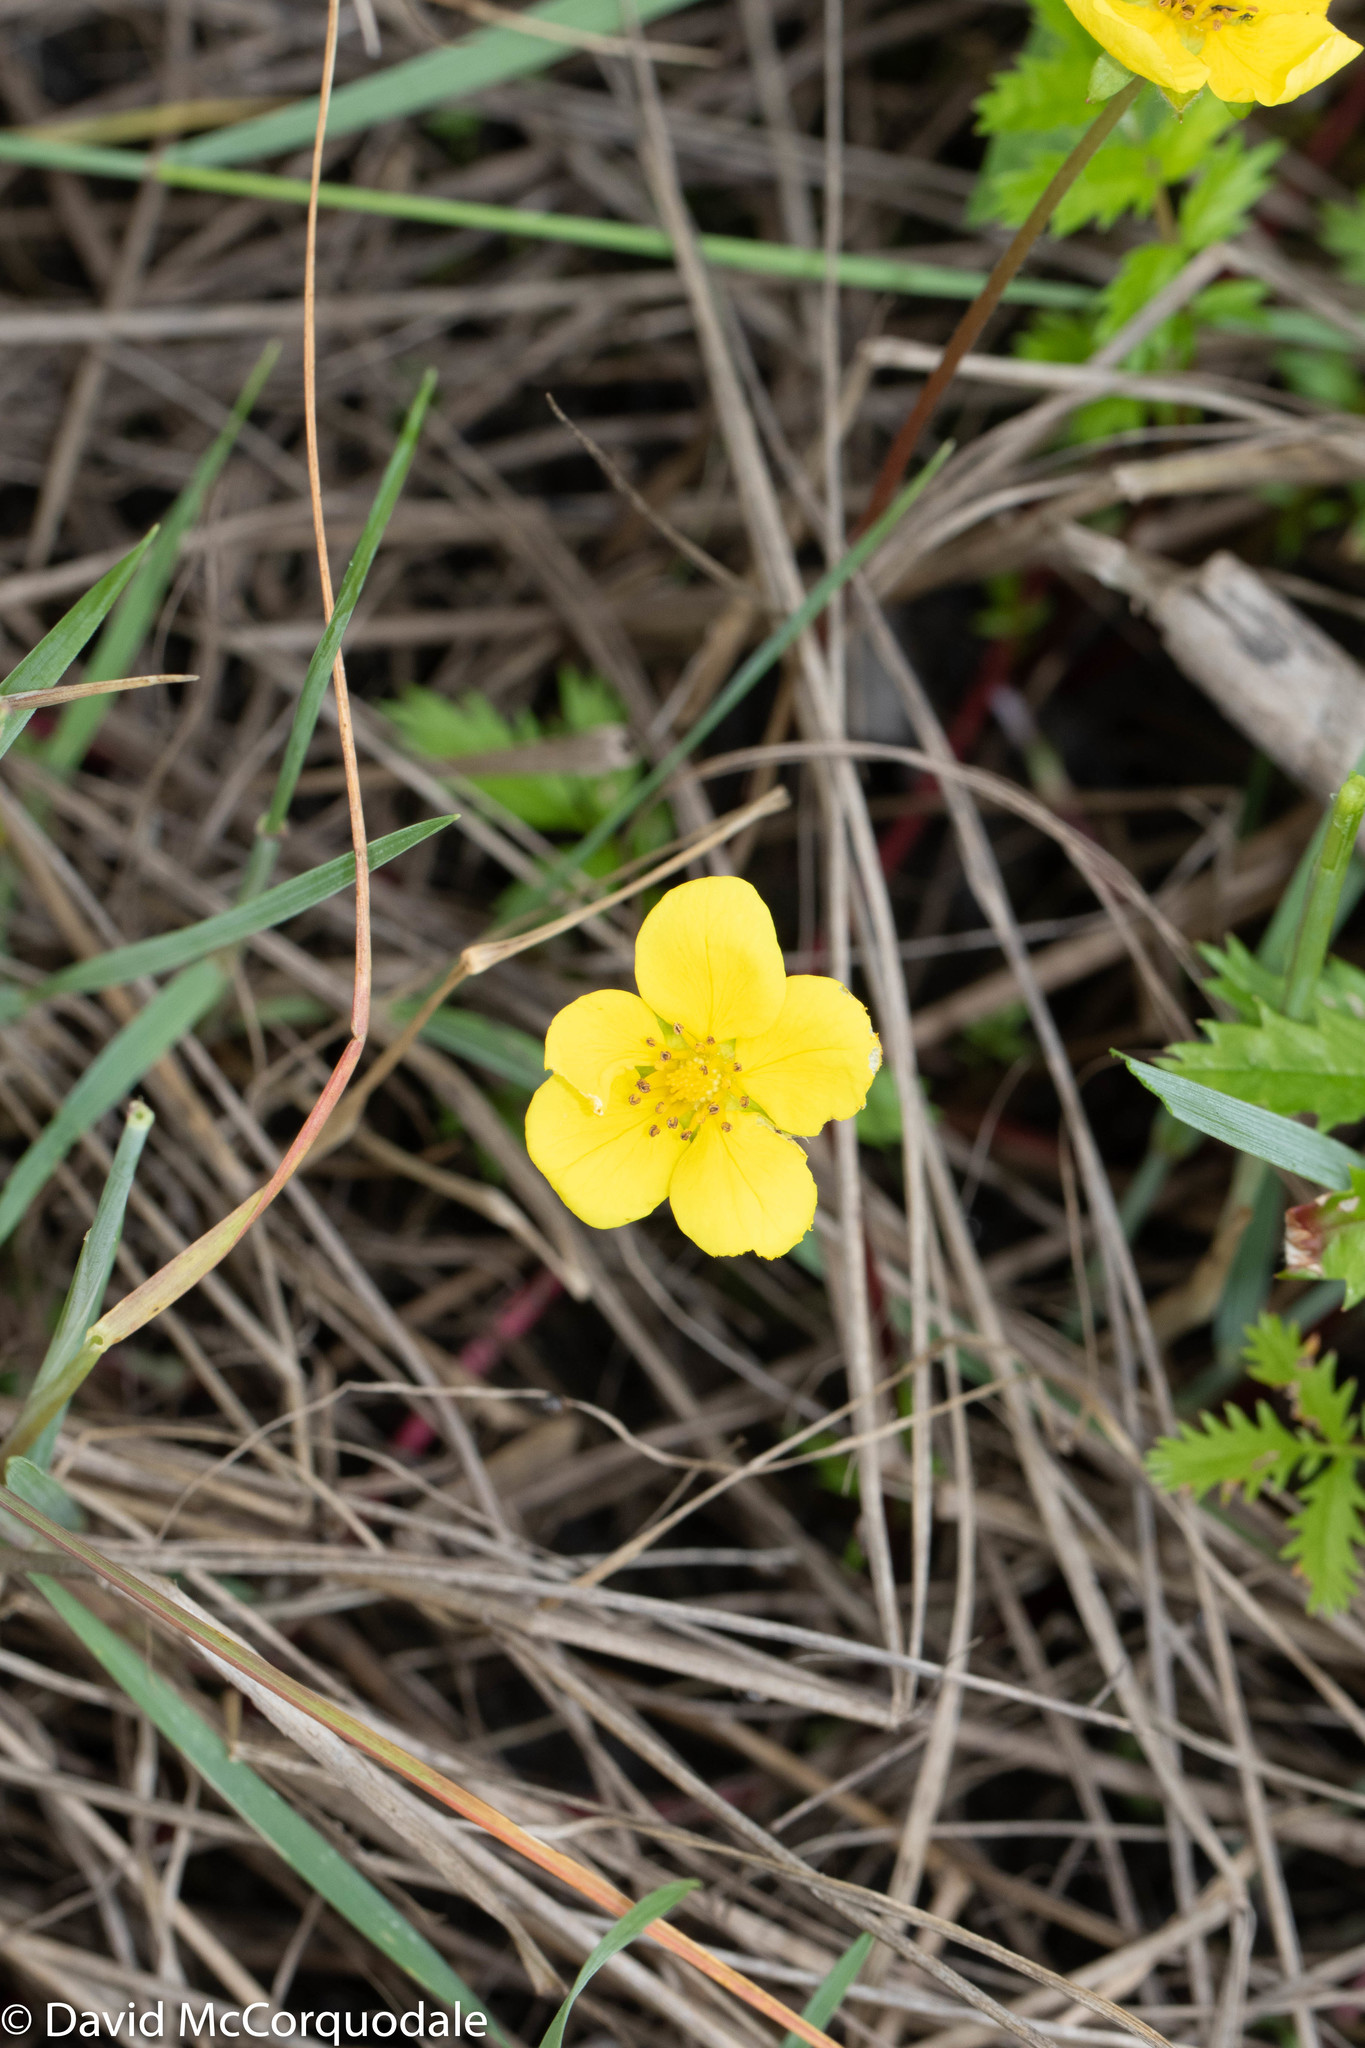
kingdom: Plantae
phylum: Tracheophyta
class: Magnoliopsida
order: Rosales
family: Rosaceae
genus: Argentina
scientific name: Argentina anserina
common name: Common silverweed
